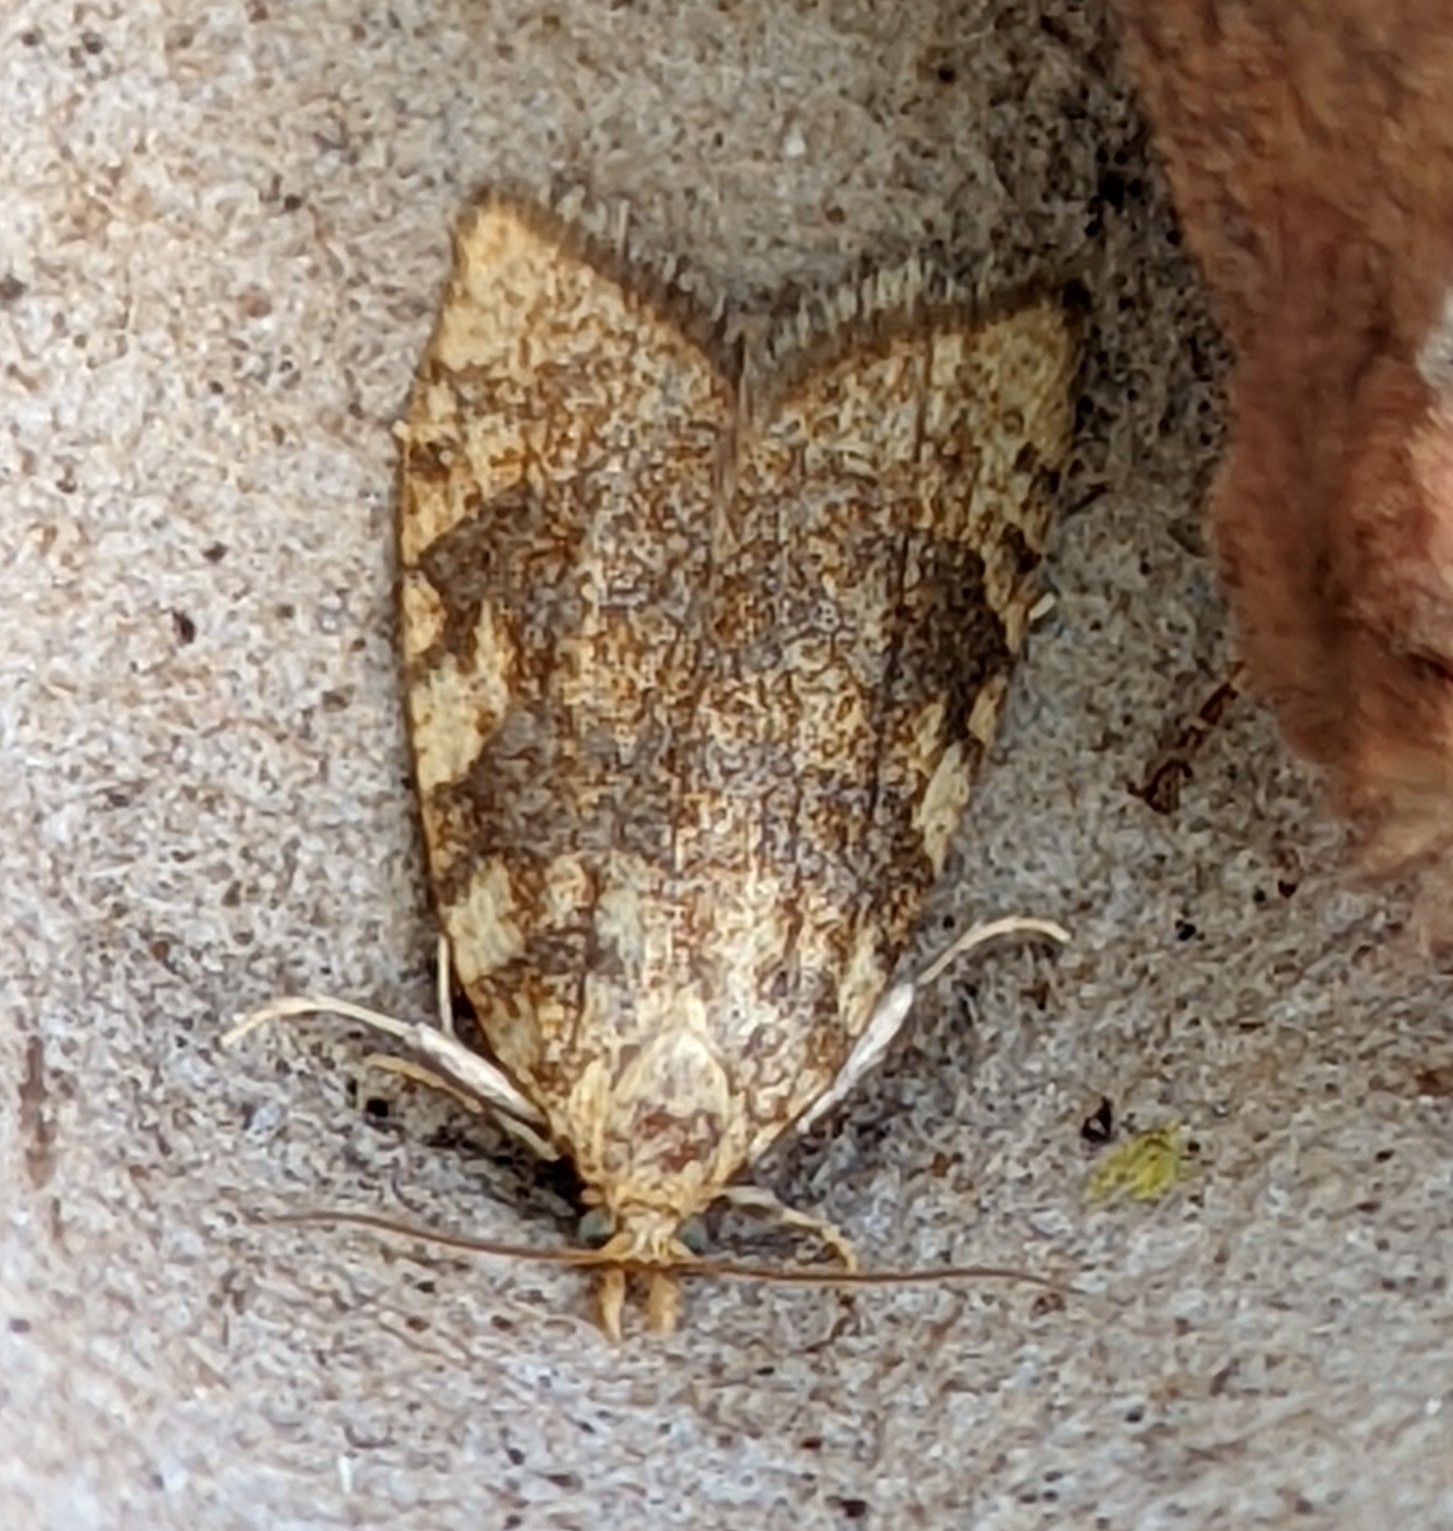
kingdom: Animalia
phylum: Arthropoda
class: Insecta
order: Lepidoptera
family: Tortricidae
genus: Aleimma
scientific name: Aleimma loeflingiana
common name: Yellow oak button
